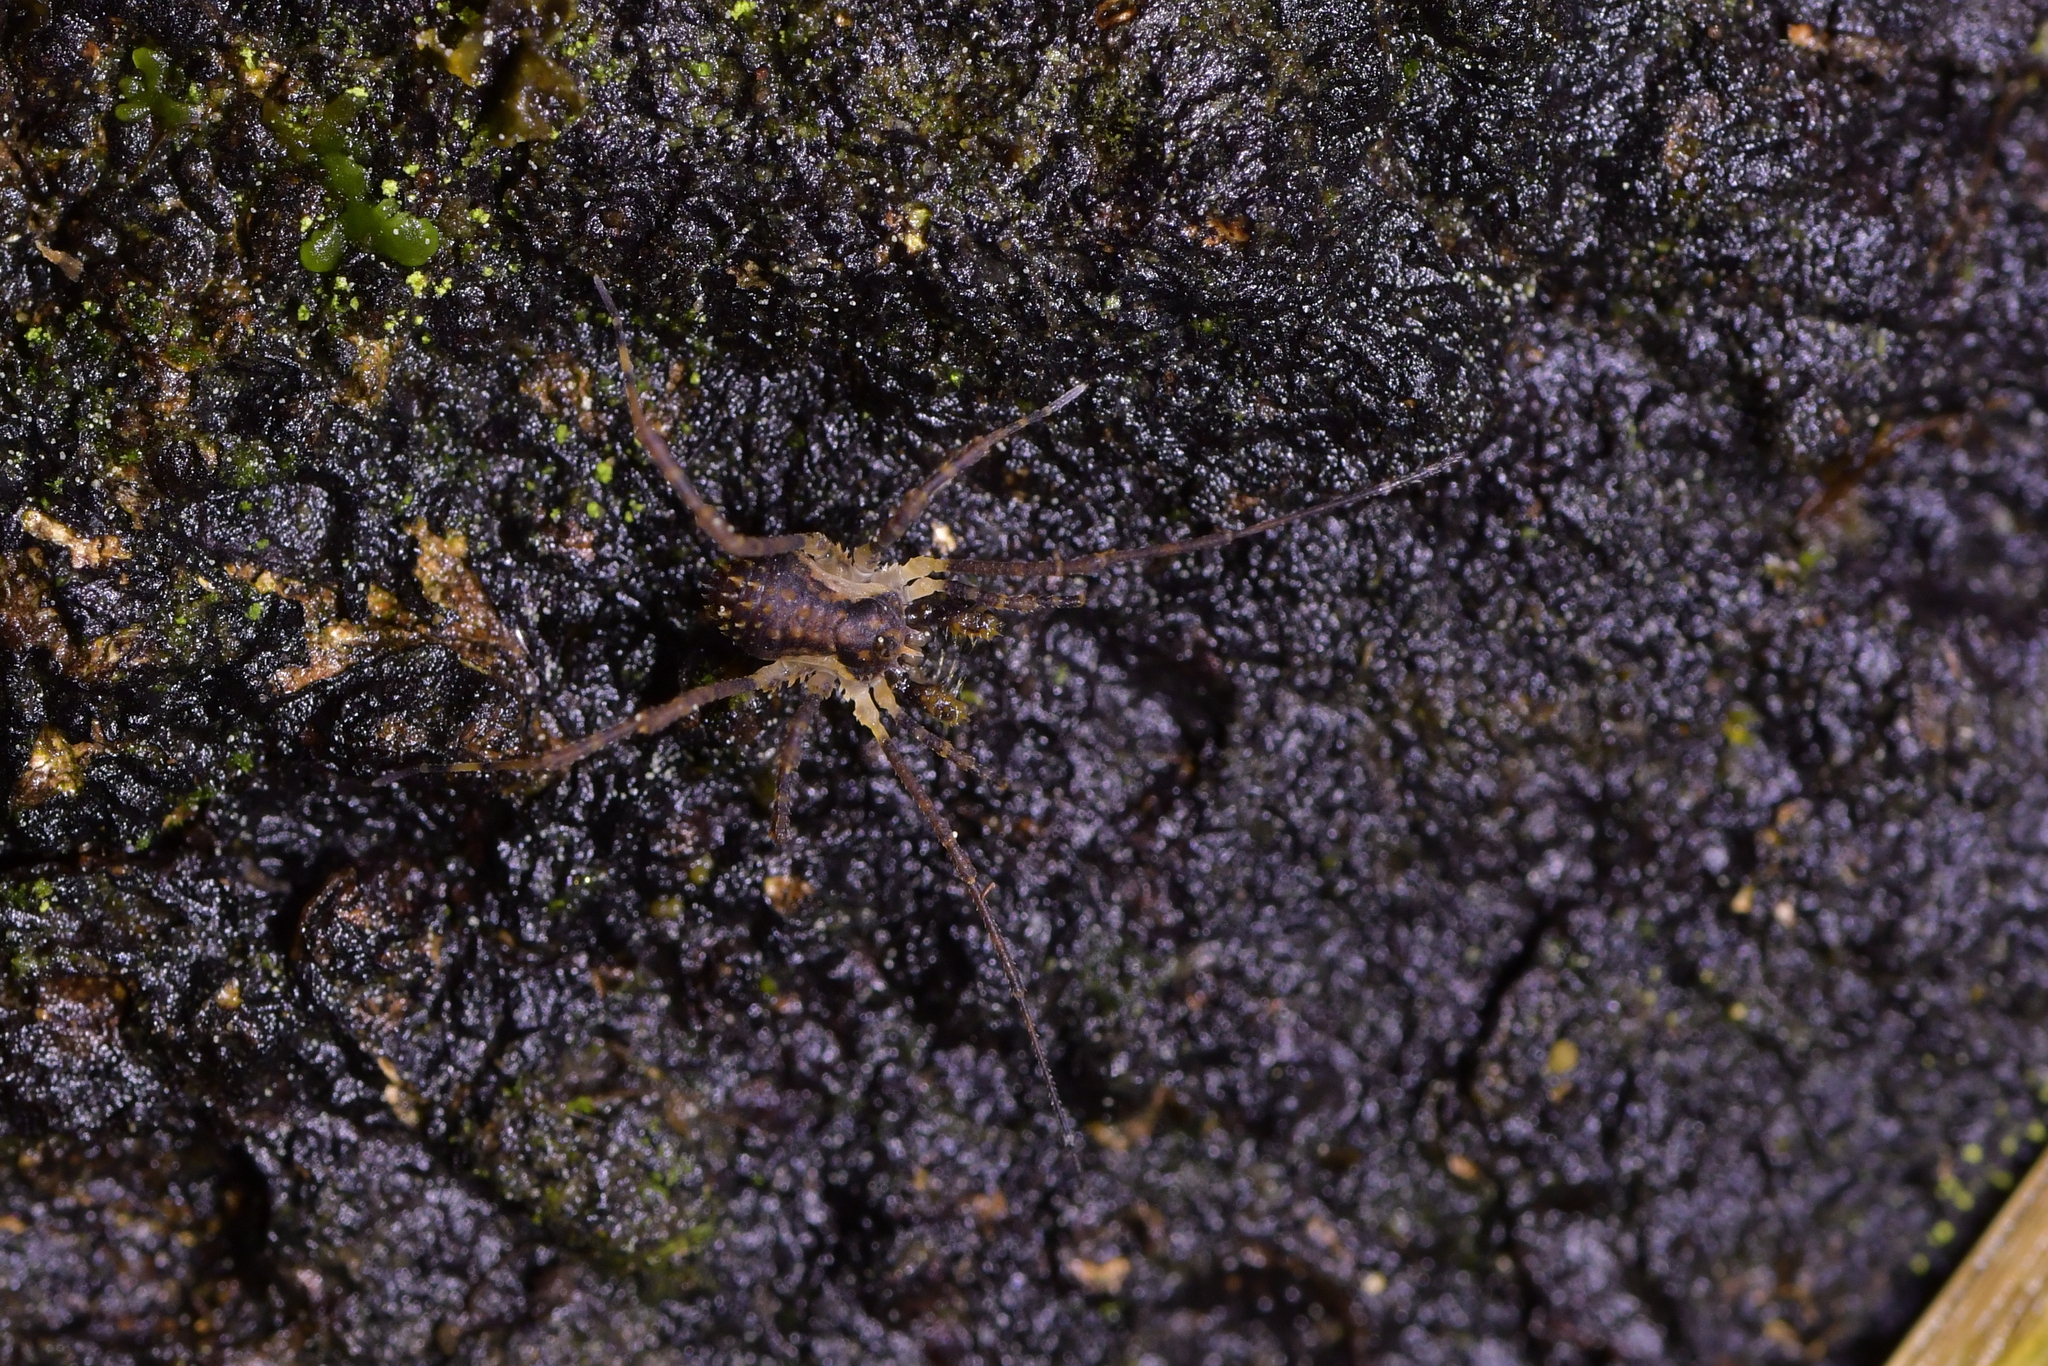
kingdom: Animalia
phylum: Arthropoda
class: Arachnida
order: Opiliones
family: Triaenonychidae
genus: Algidia
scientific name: Algidia chiltoni
